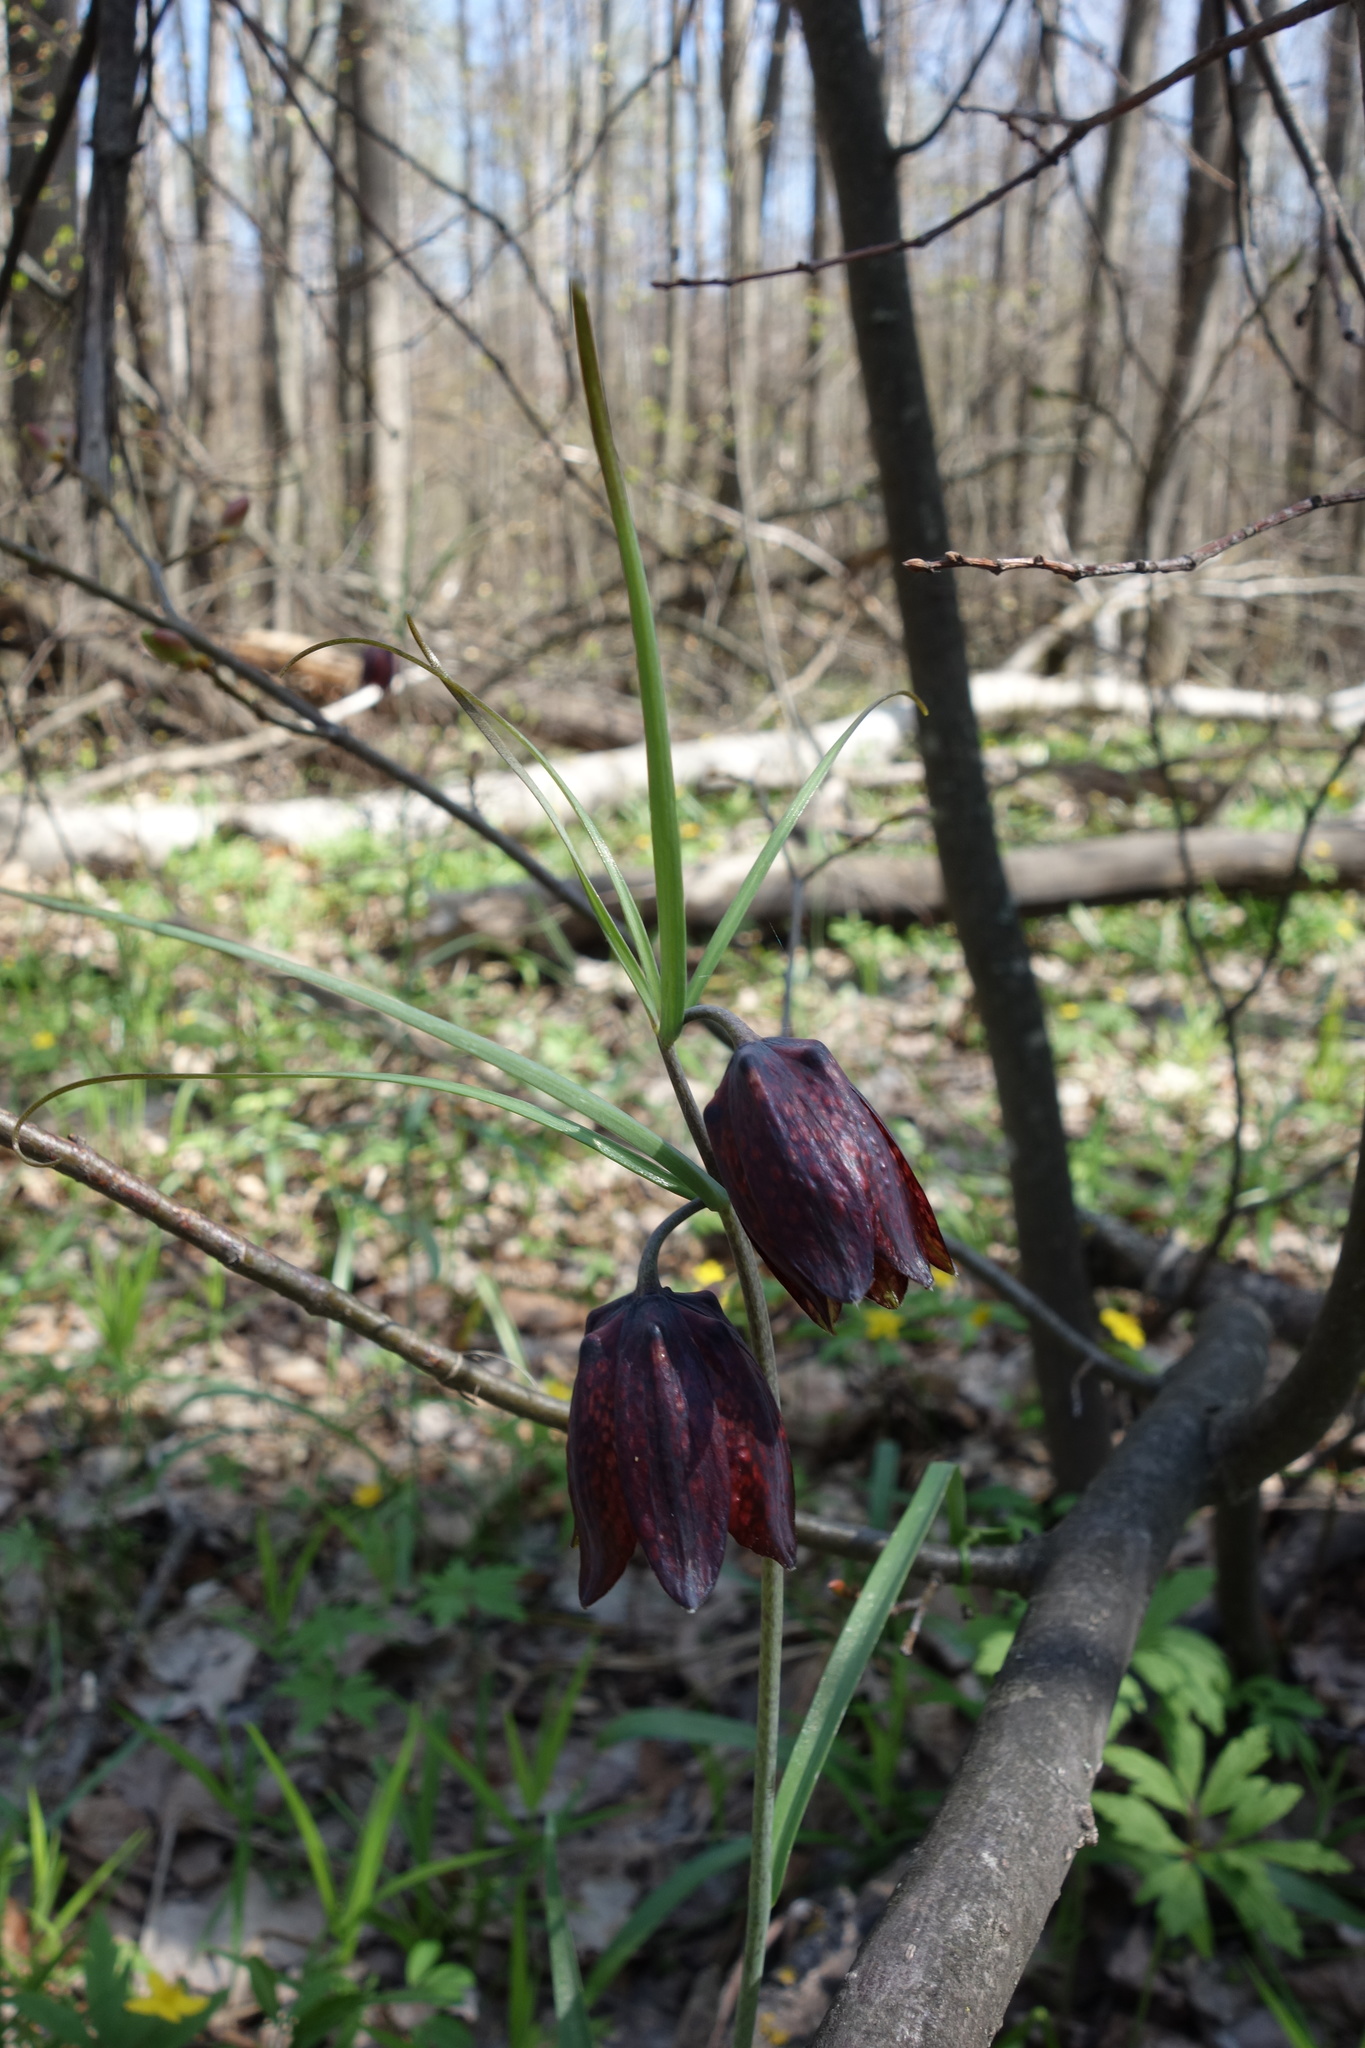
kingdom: Plantae
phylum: Tracheophyta
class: Liliopsida
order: Liliales
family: Liliaceae
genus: Fritillaria
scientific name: Fritillaria ruthenica
